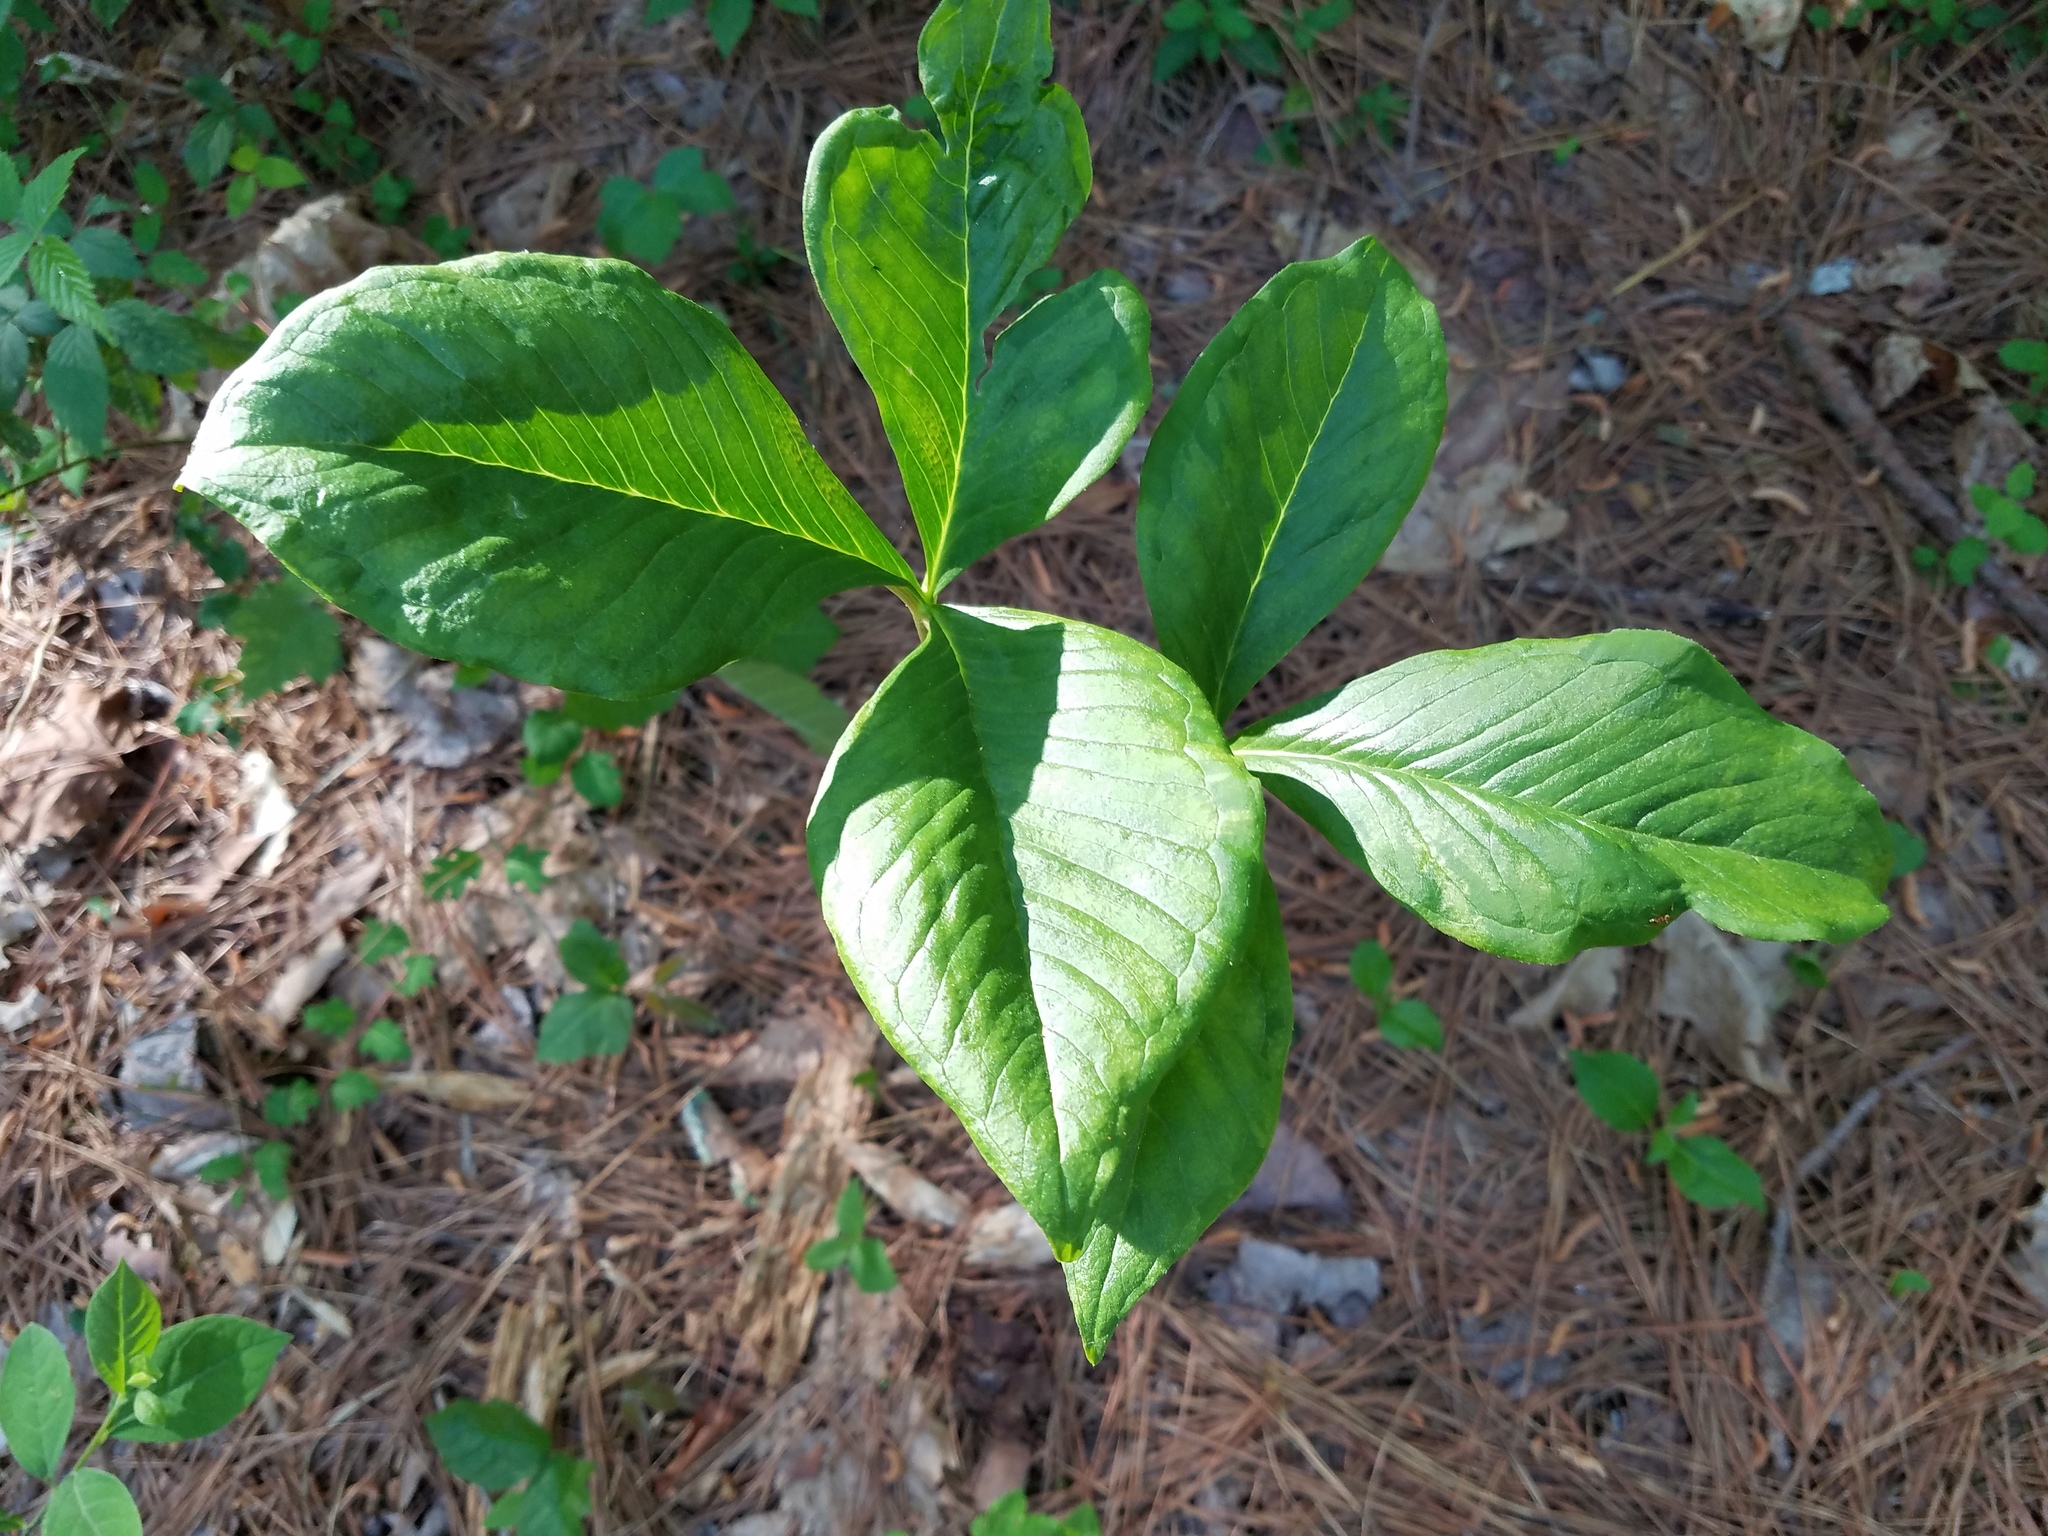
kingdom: Plantae
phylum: Tracheophyta
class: Liliopsida
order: Alismatales
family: Araceae
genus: Arisaema
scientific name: Arisaema triphyllum
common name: Jack-in-the-pulpit
